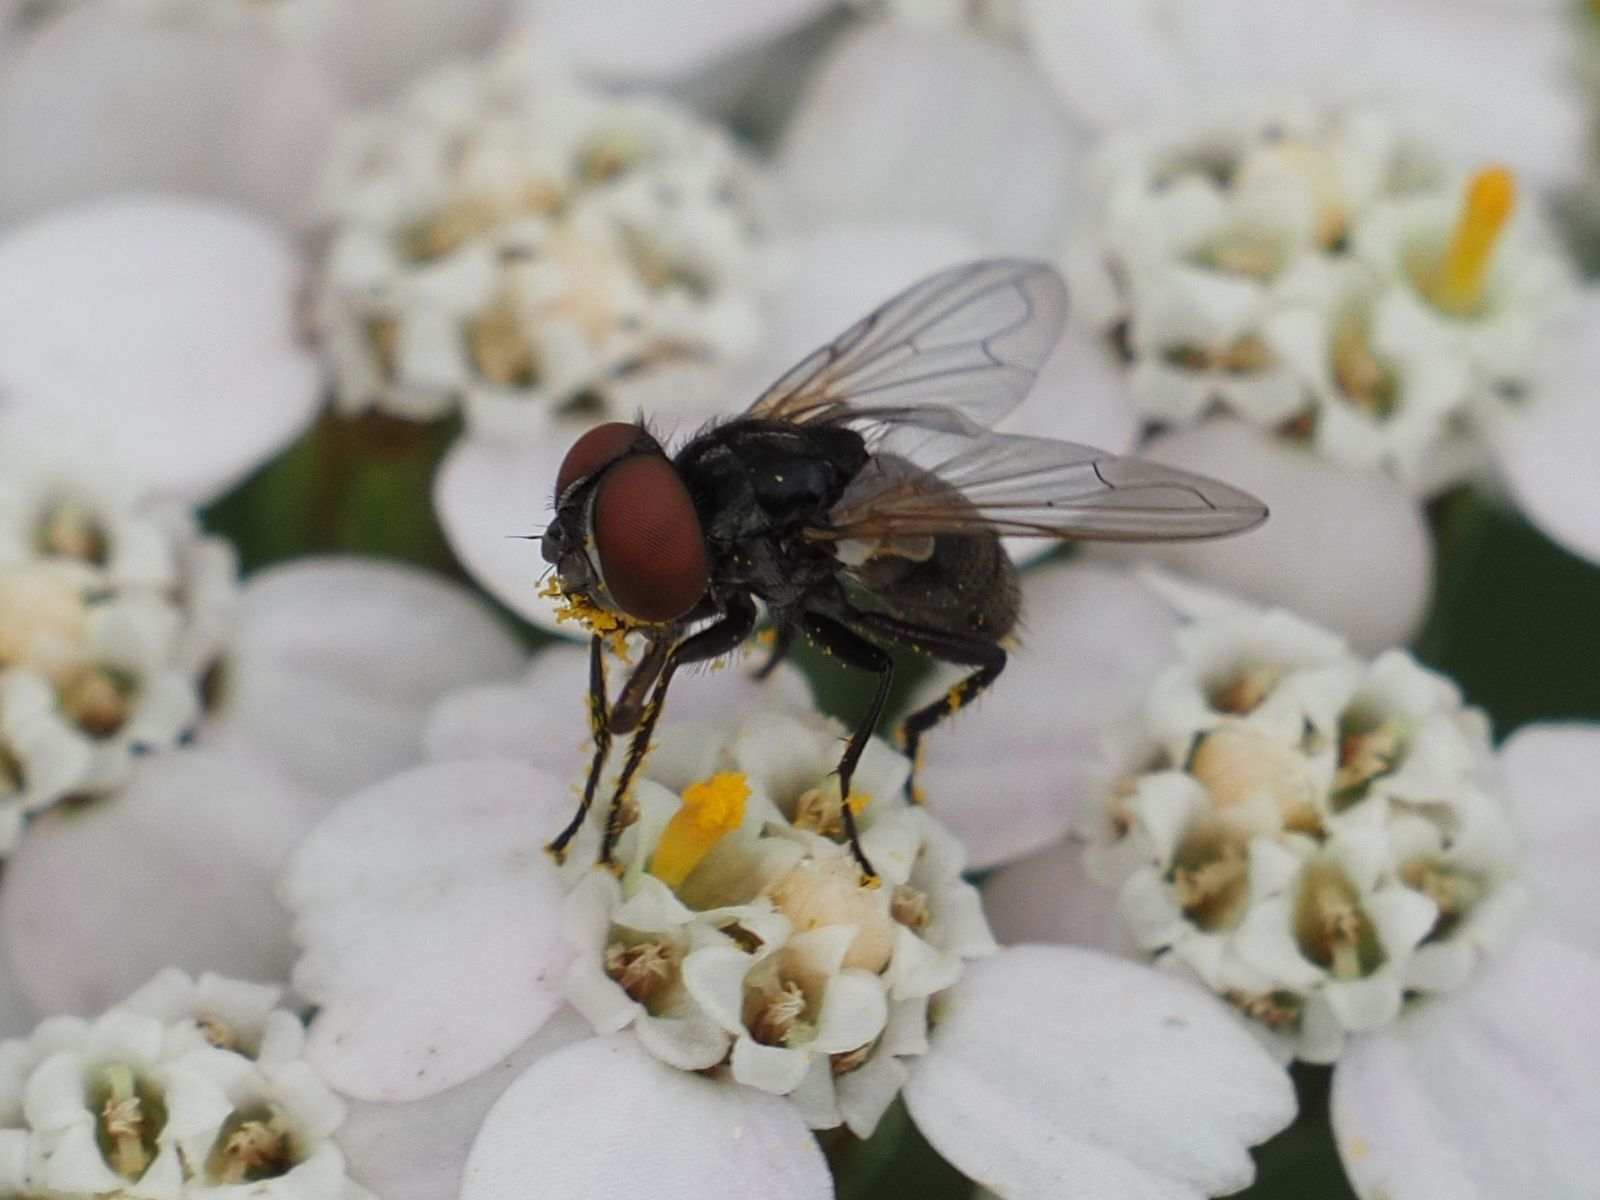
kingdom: Animalia
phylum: Arthropoda
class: Insecta
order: Diptera
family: Tachinidae
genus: Phasia
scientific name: Phasia obesa
